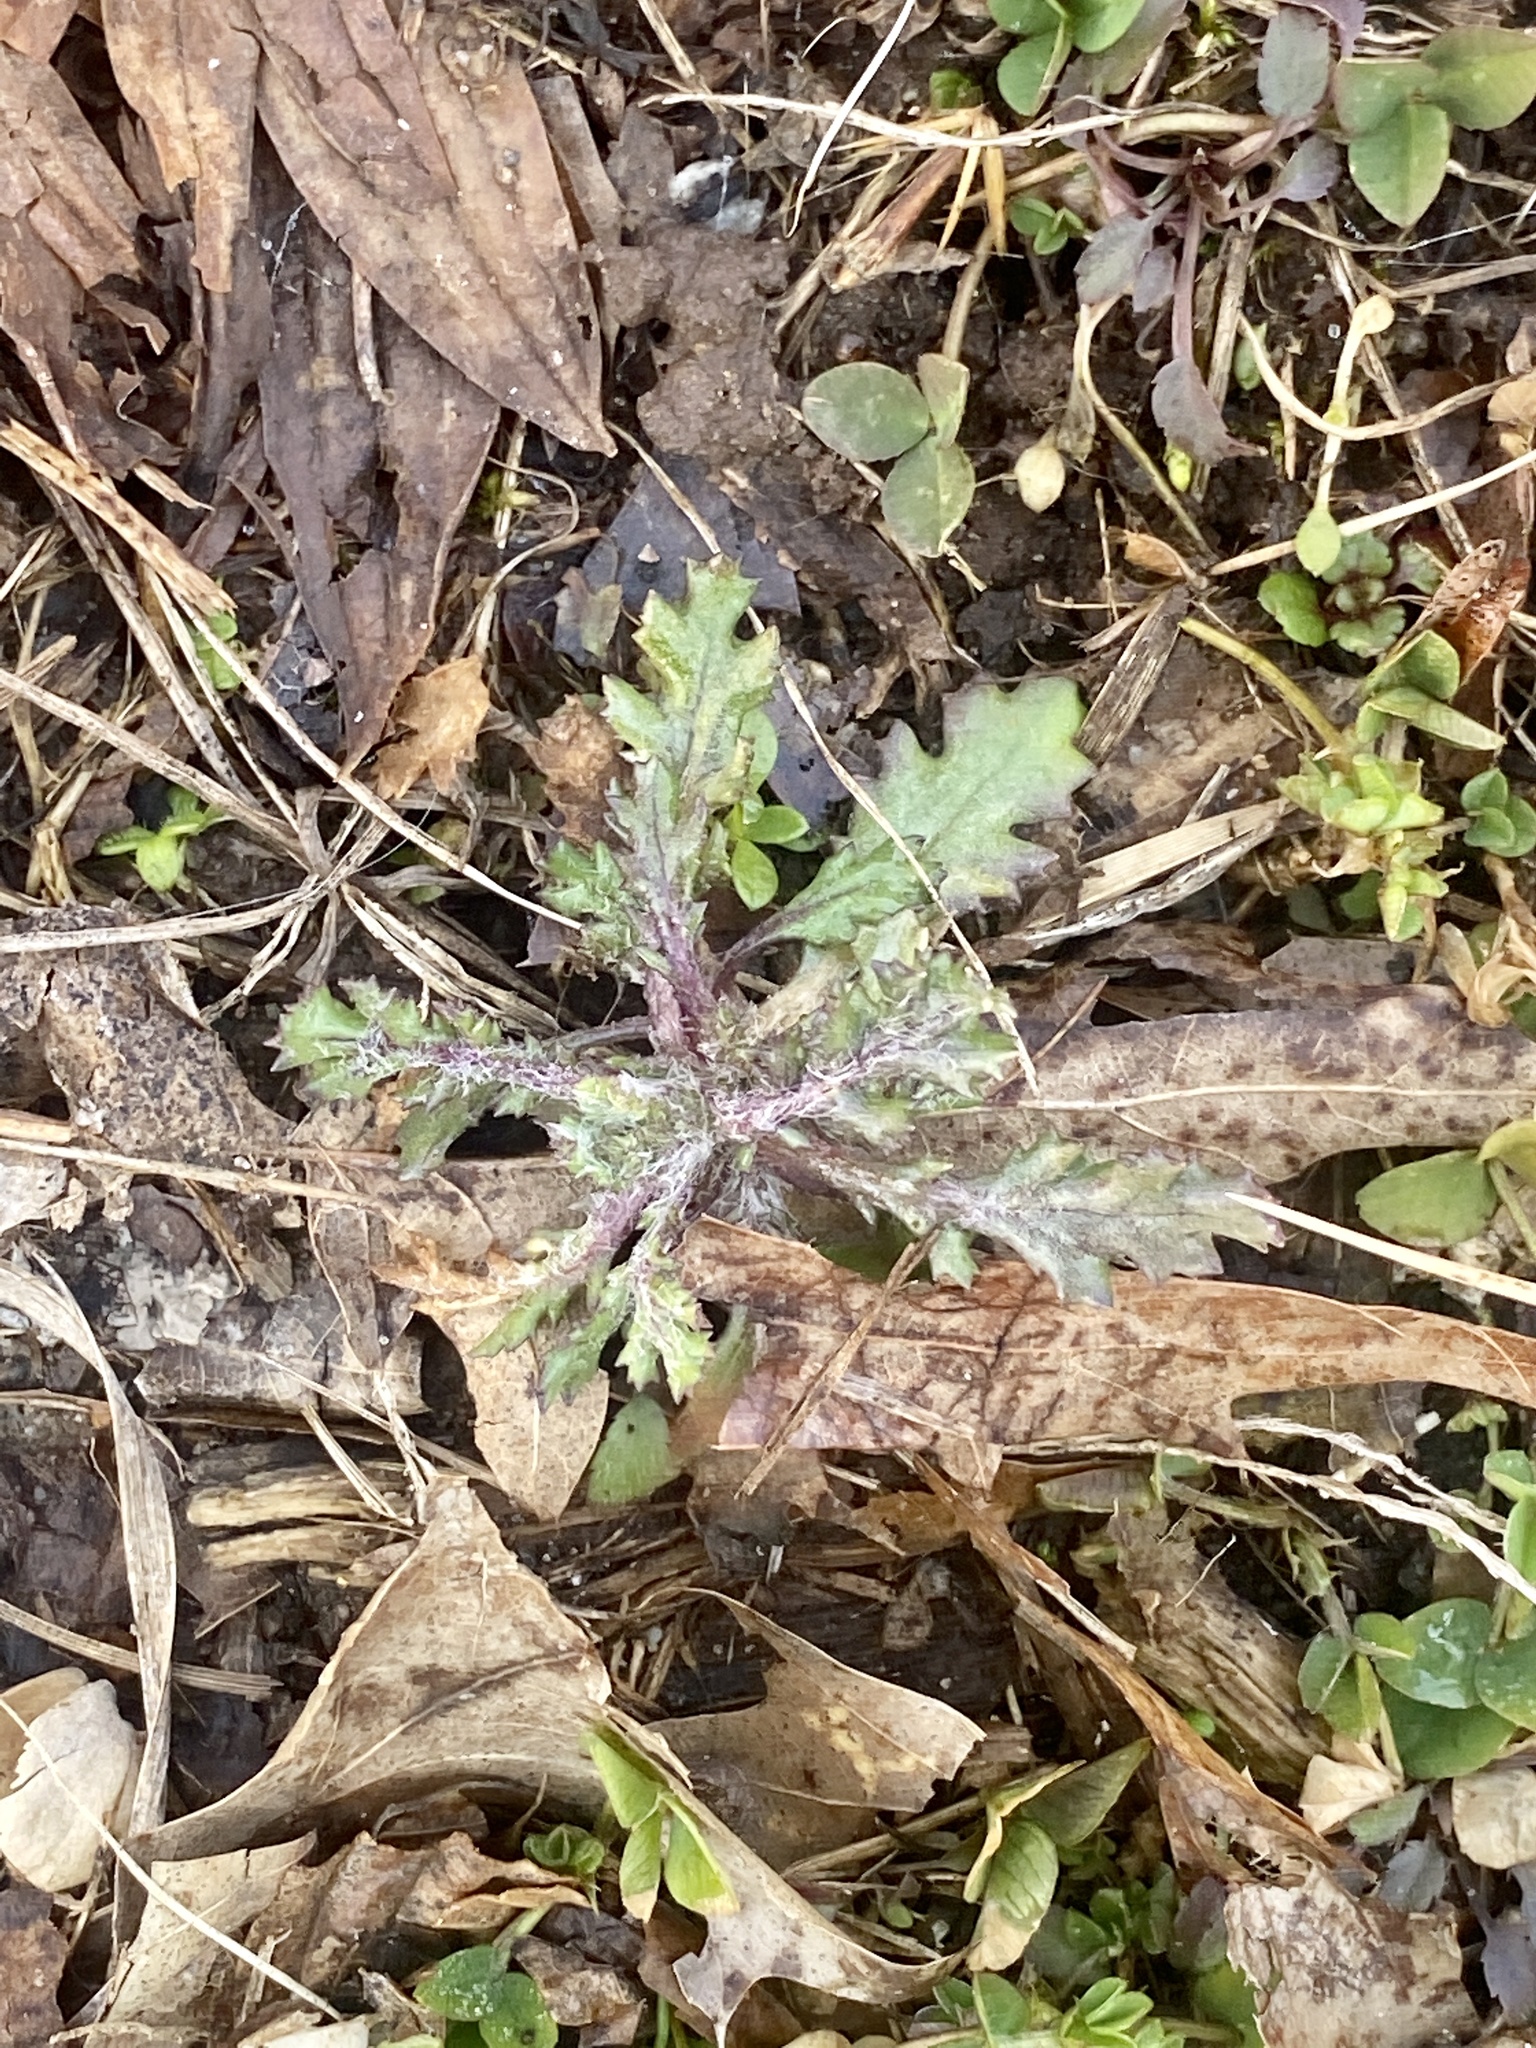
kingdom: Plantae
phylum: Tracheophyta
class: Magnoliopsida
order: Asterales
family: Asteraceae
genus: Senecio
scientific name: Senecio vulgaris
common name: Old-man-in-the-spring
